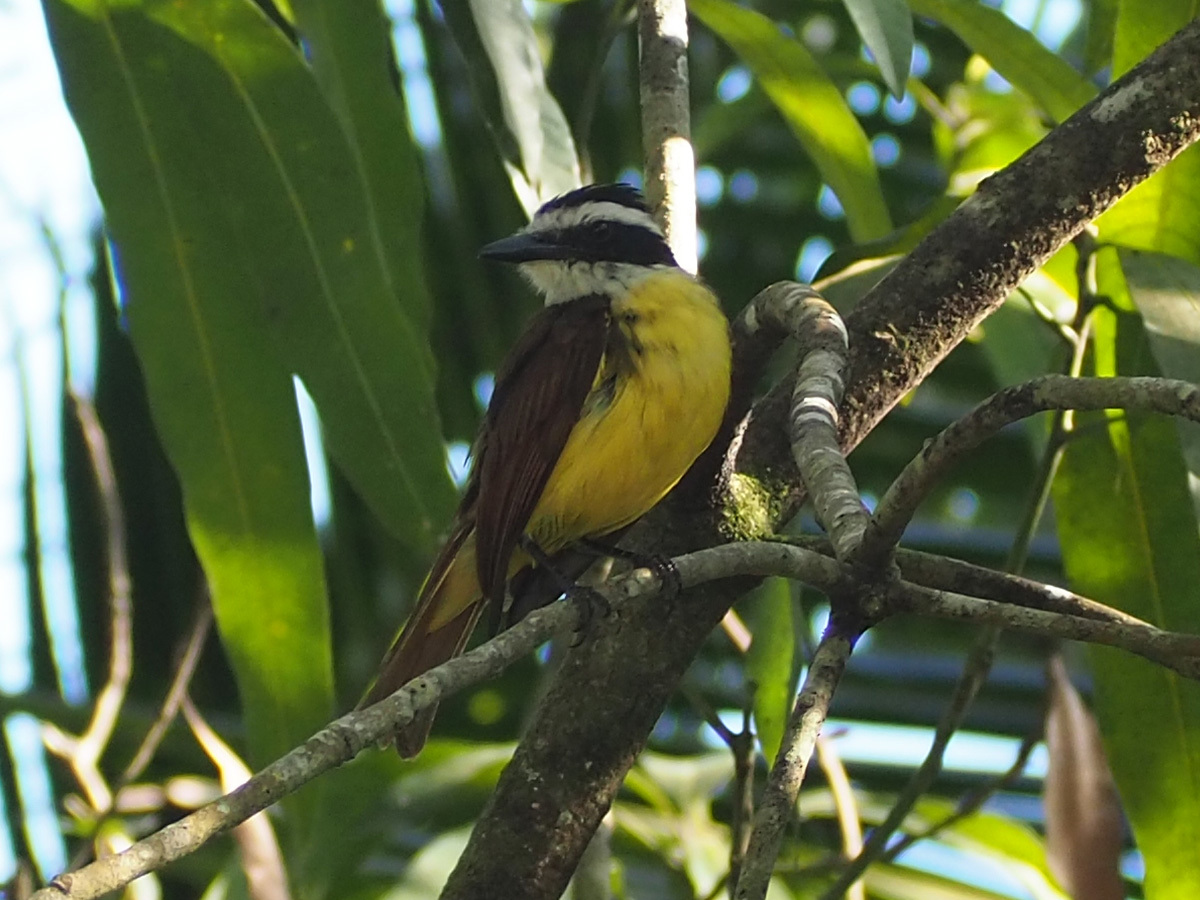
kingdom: Animalia
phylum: Chordata
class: Aves
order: Passeriformes
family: Tyrannidae
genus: Pitangus
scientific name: Pitangus sulphuratus
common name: Great kiskadee
